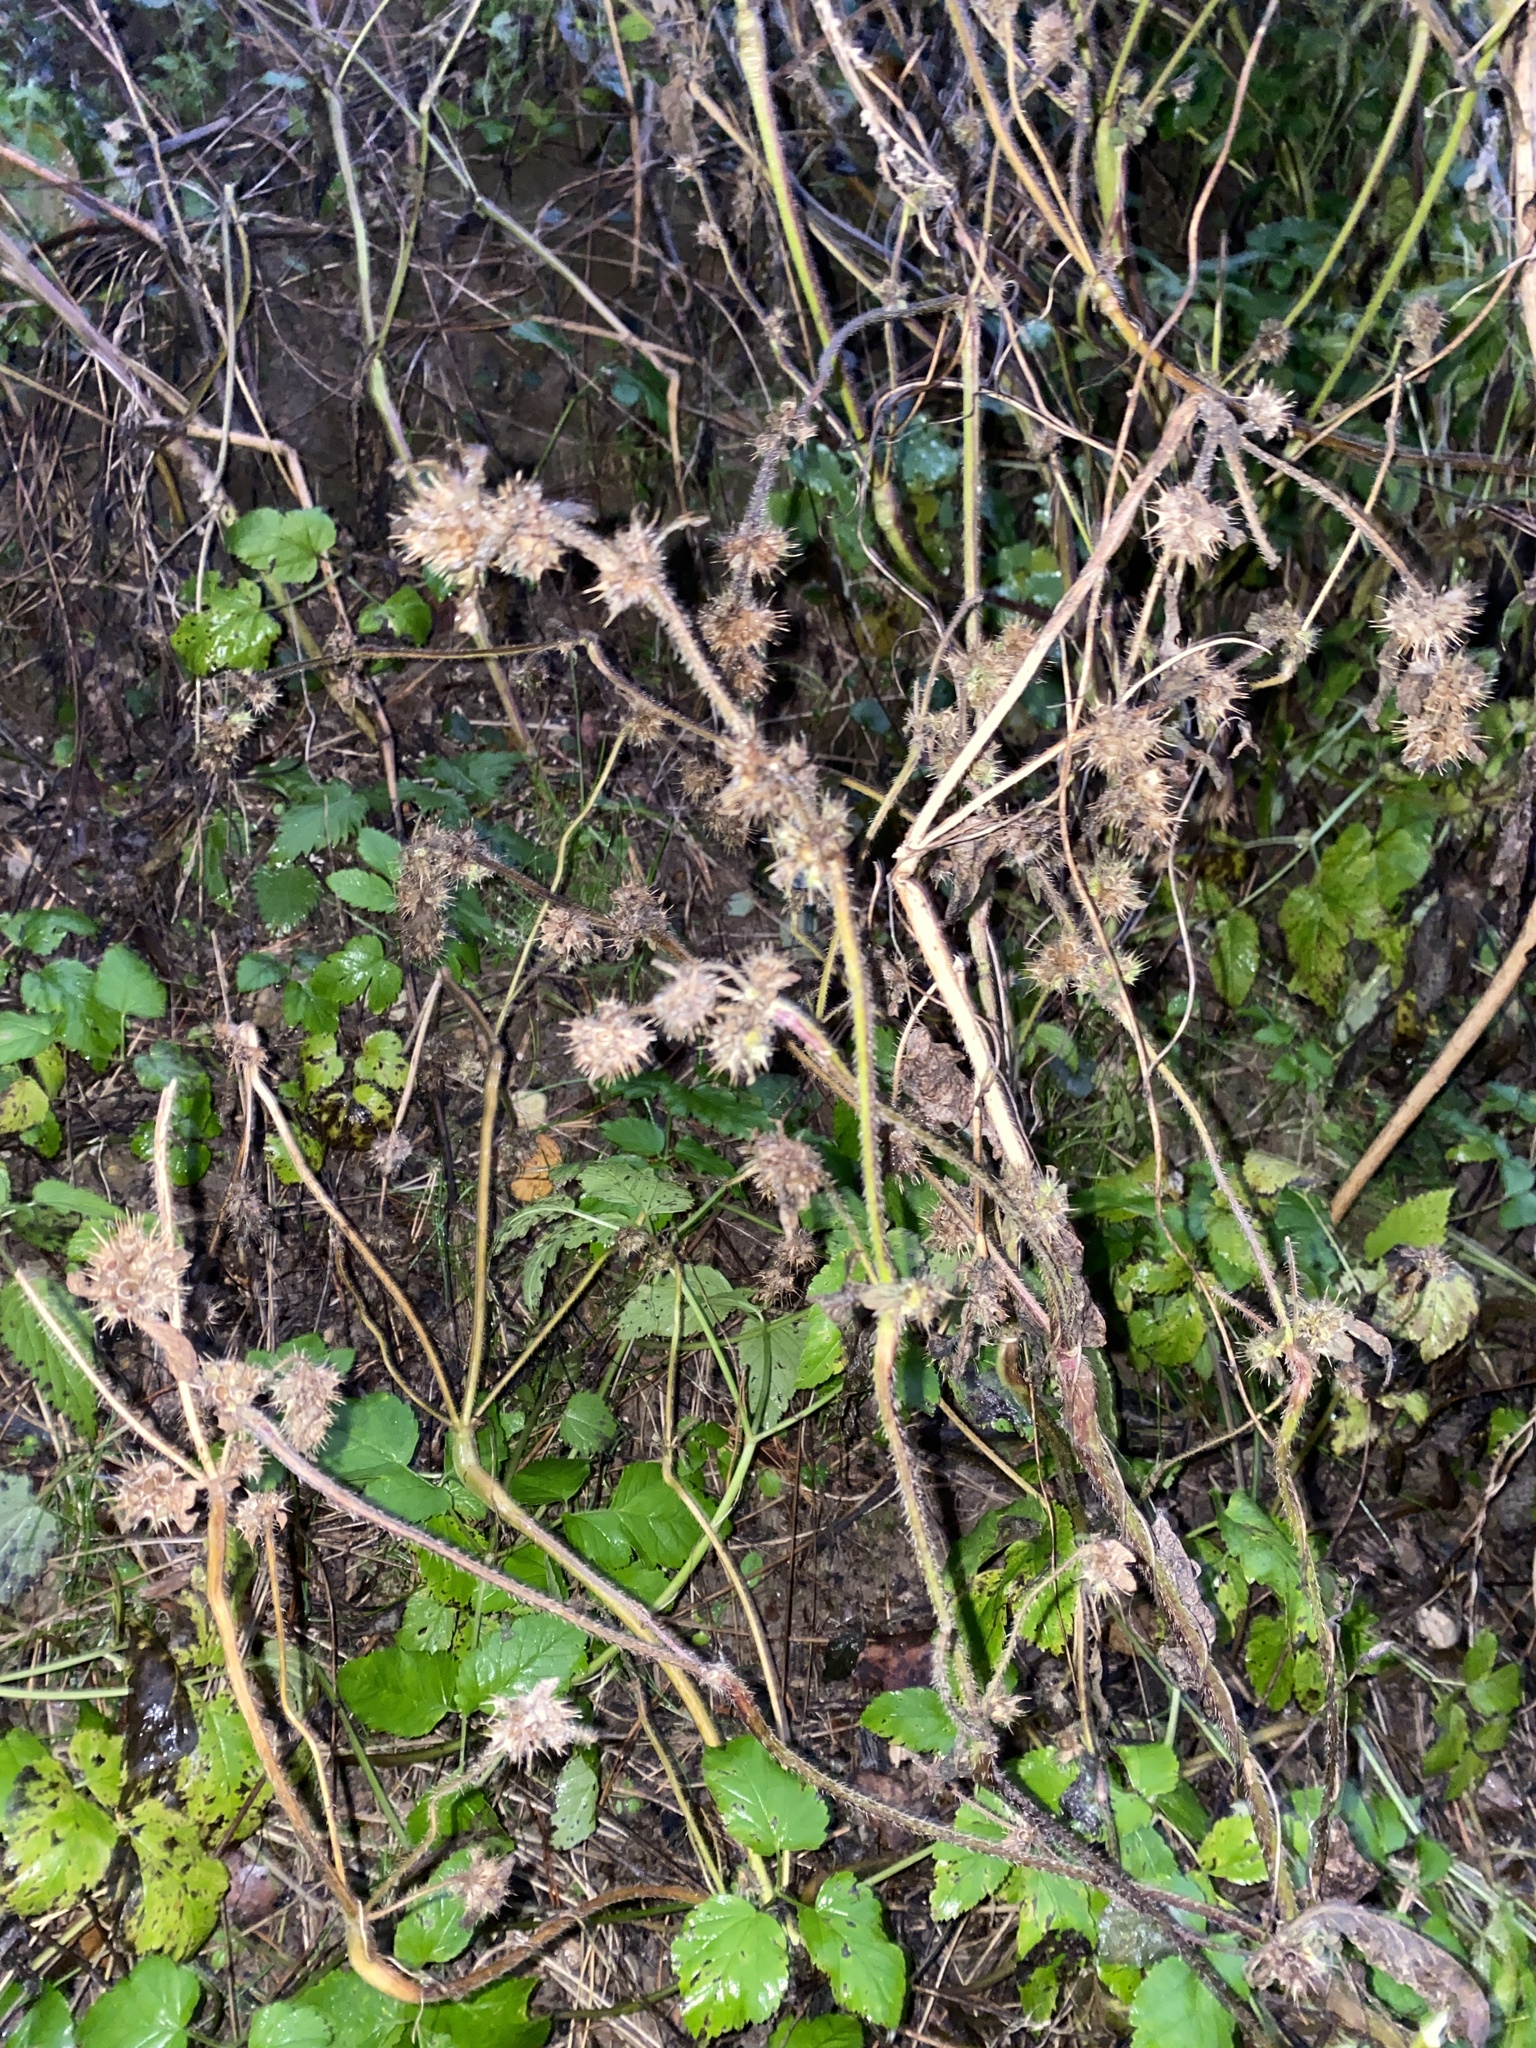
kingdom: Plantae
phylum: Tracheophyta
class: Magnoliopsida
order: Lamiales
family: Lamiaceae
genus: Galeopsis
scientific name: Galeopsis
